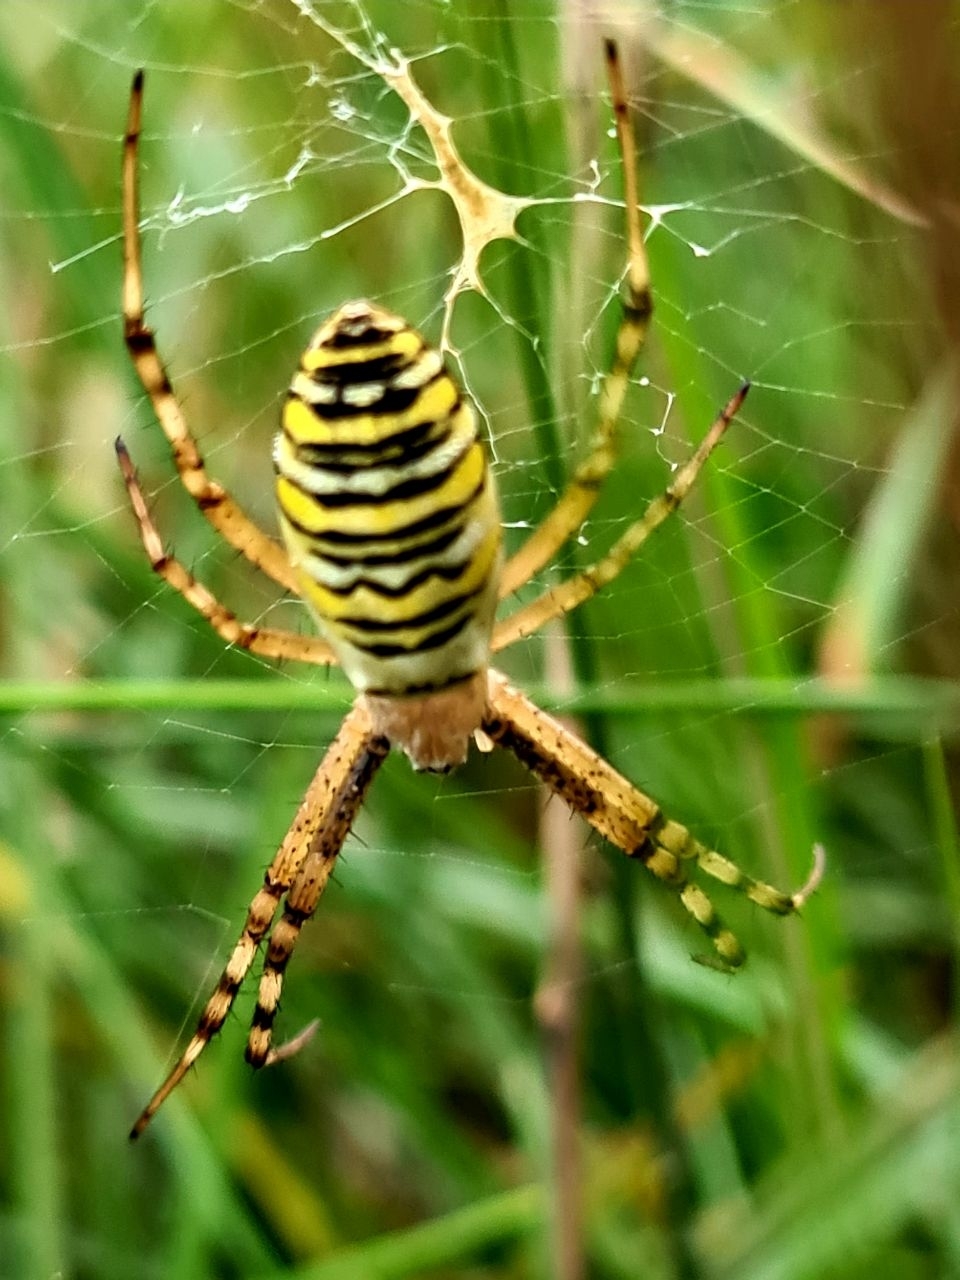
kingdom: Animalia
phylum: Arthropoda
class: Arachnida
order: Araneae
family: Araneidae
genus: Argiope
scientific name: Argiope bruennichi
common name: Wasp spider
